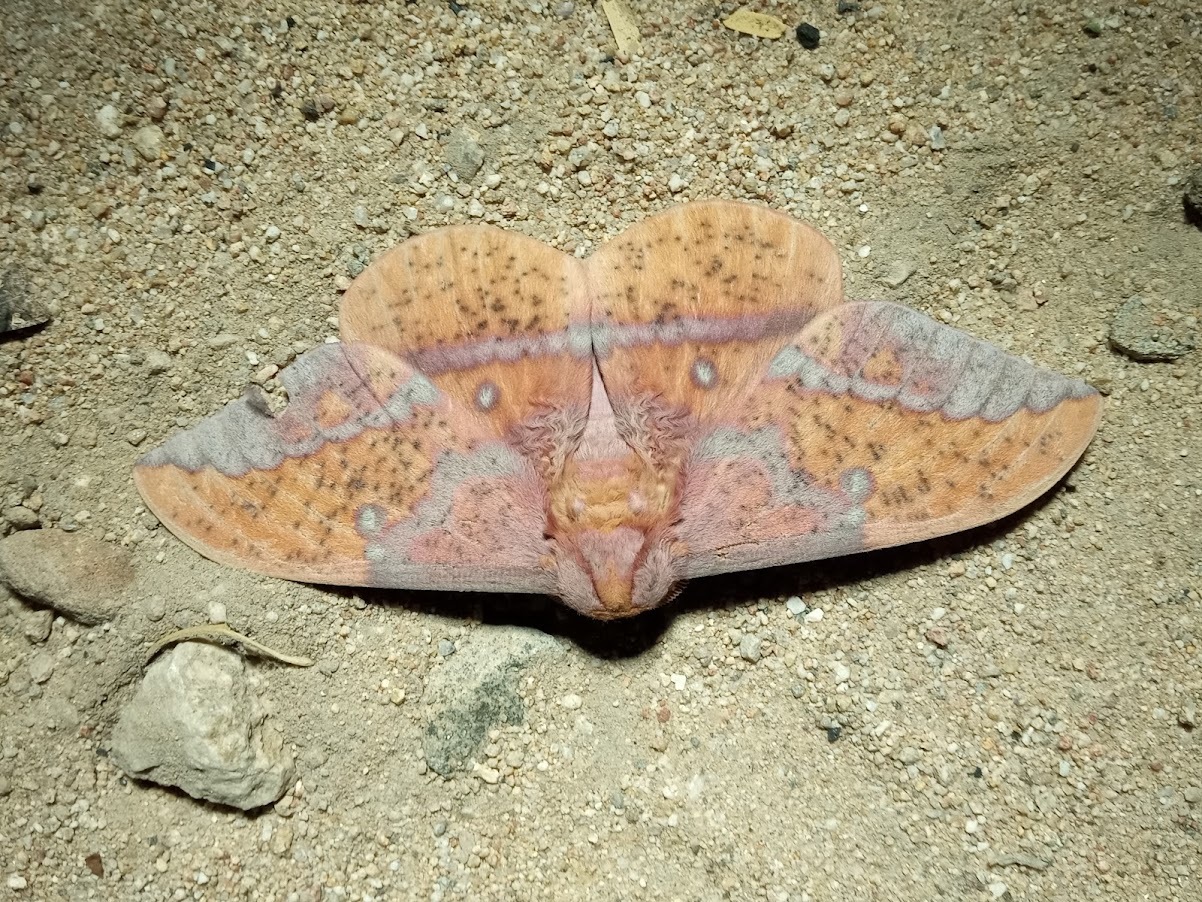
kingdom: Animalia
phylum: Arthropoda
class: Insecta
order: Lepidoptera
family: Saturniidae
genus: Eacles
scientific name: Eacles oslari
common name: Oslar's imperial moth
